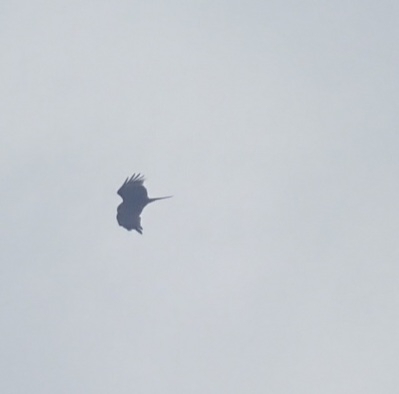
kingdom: Animalia
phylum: Chordata
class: Aves
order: Accipitriformes
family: Accipitridae
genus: Milvus
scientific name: Milvus migrans
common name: Black kite
